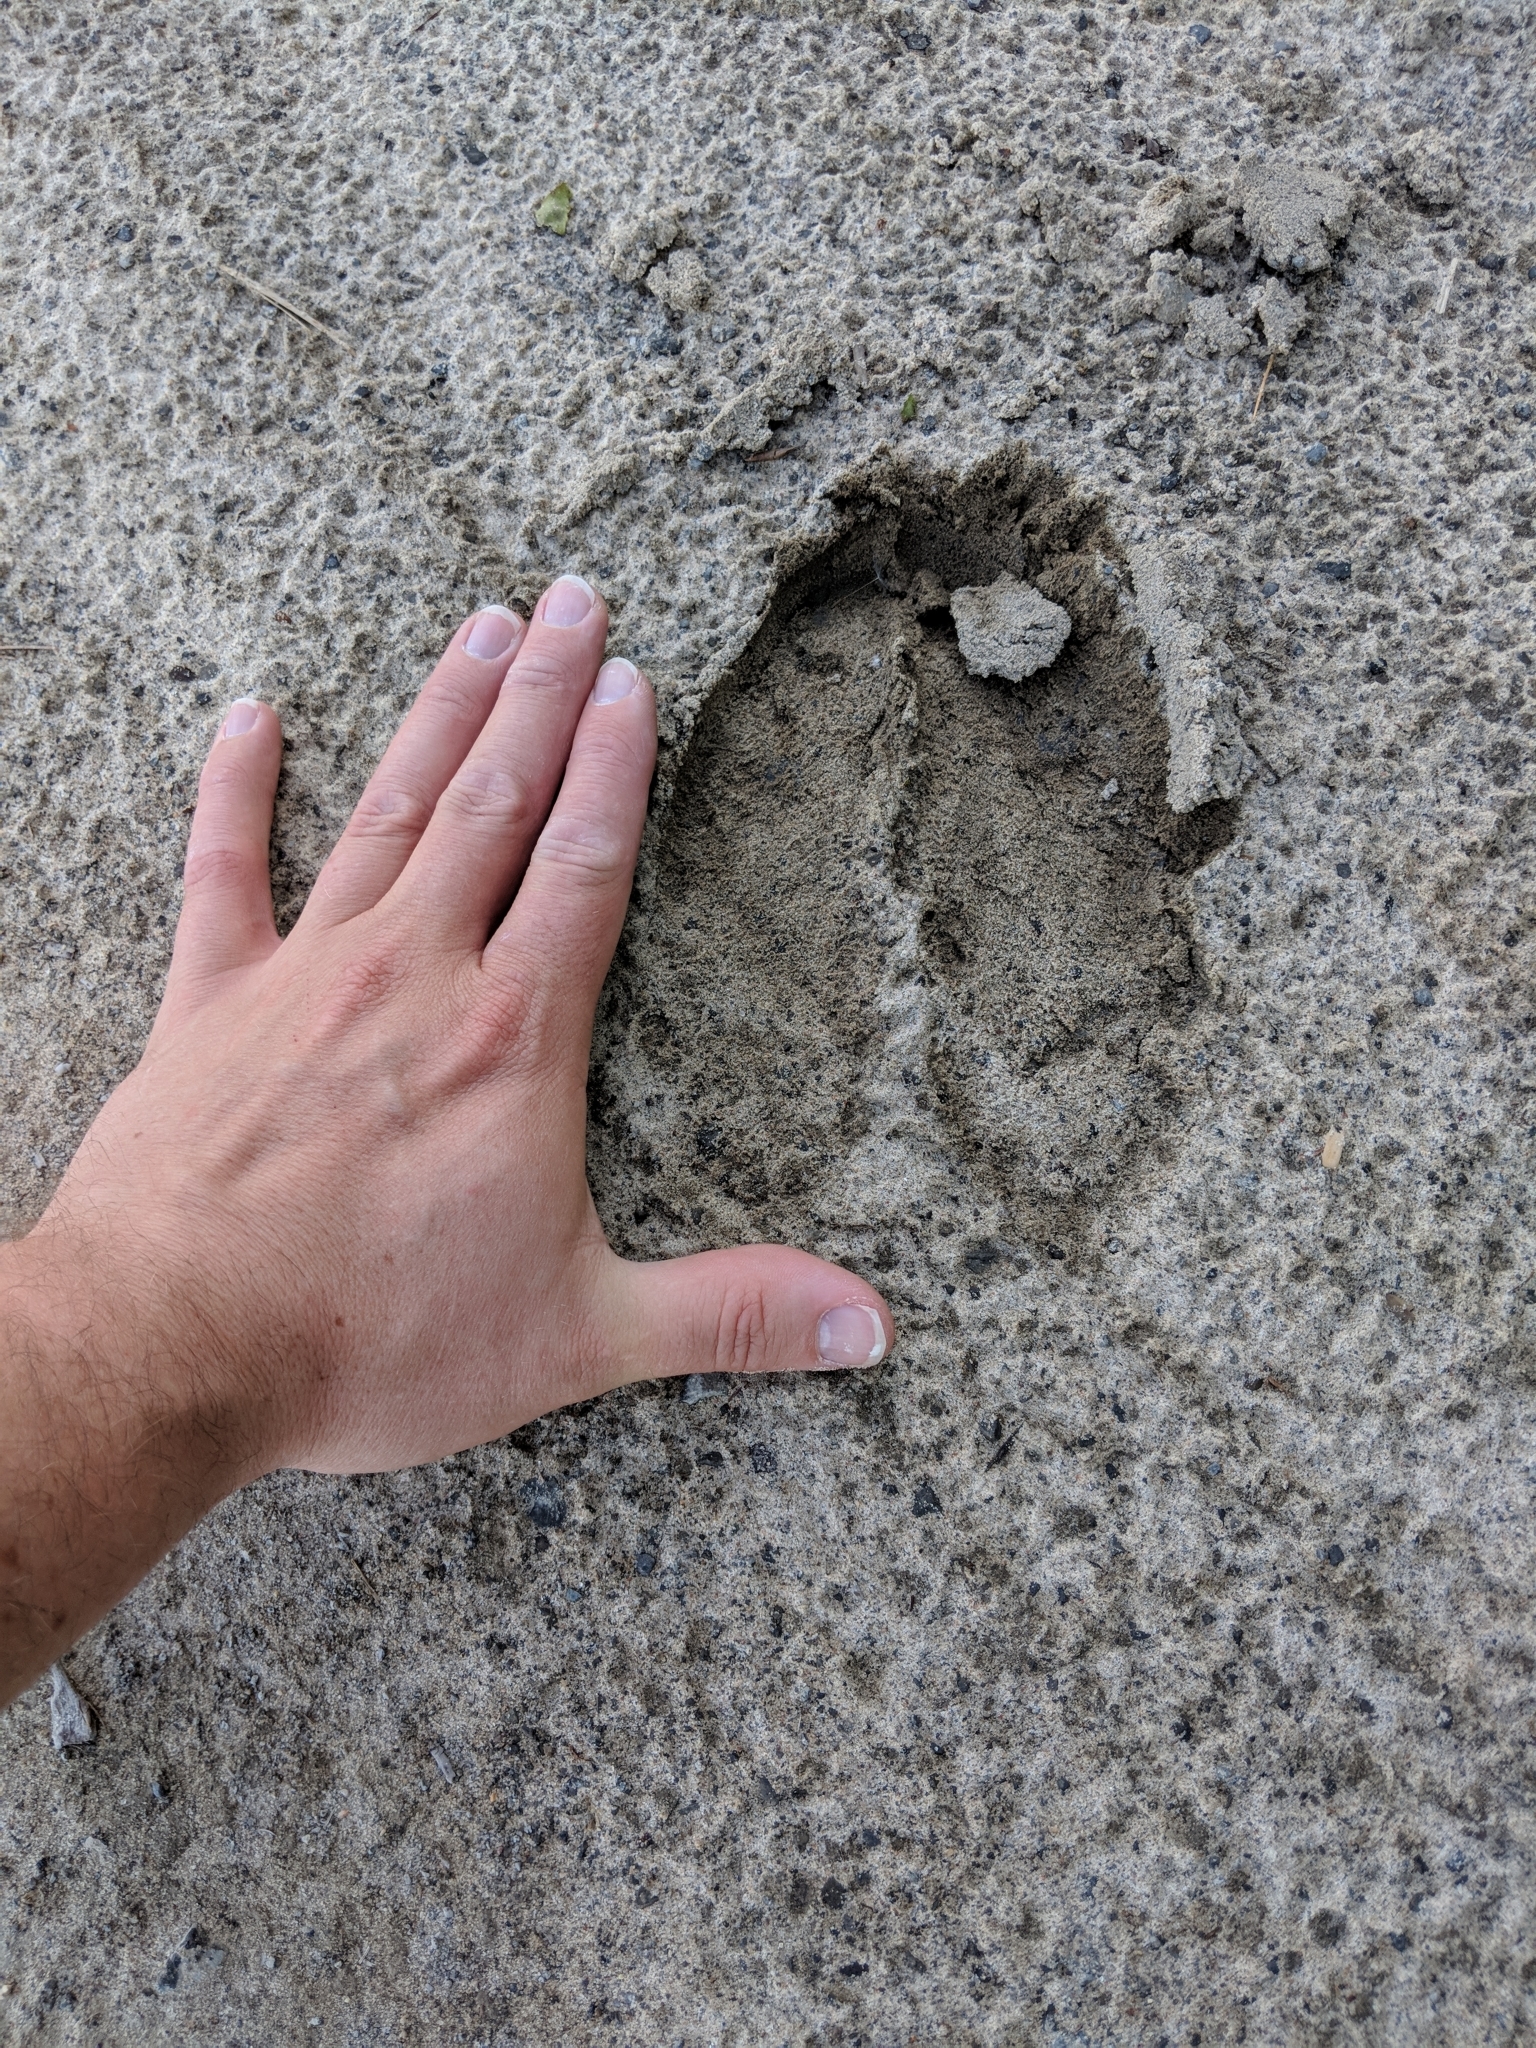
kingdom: Animalia
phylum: Chordata
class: Mammalia
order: Artiodactyla
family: Cervidae
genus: Alces
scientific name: Alces alces
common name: Moose
